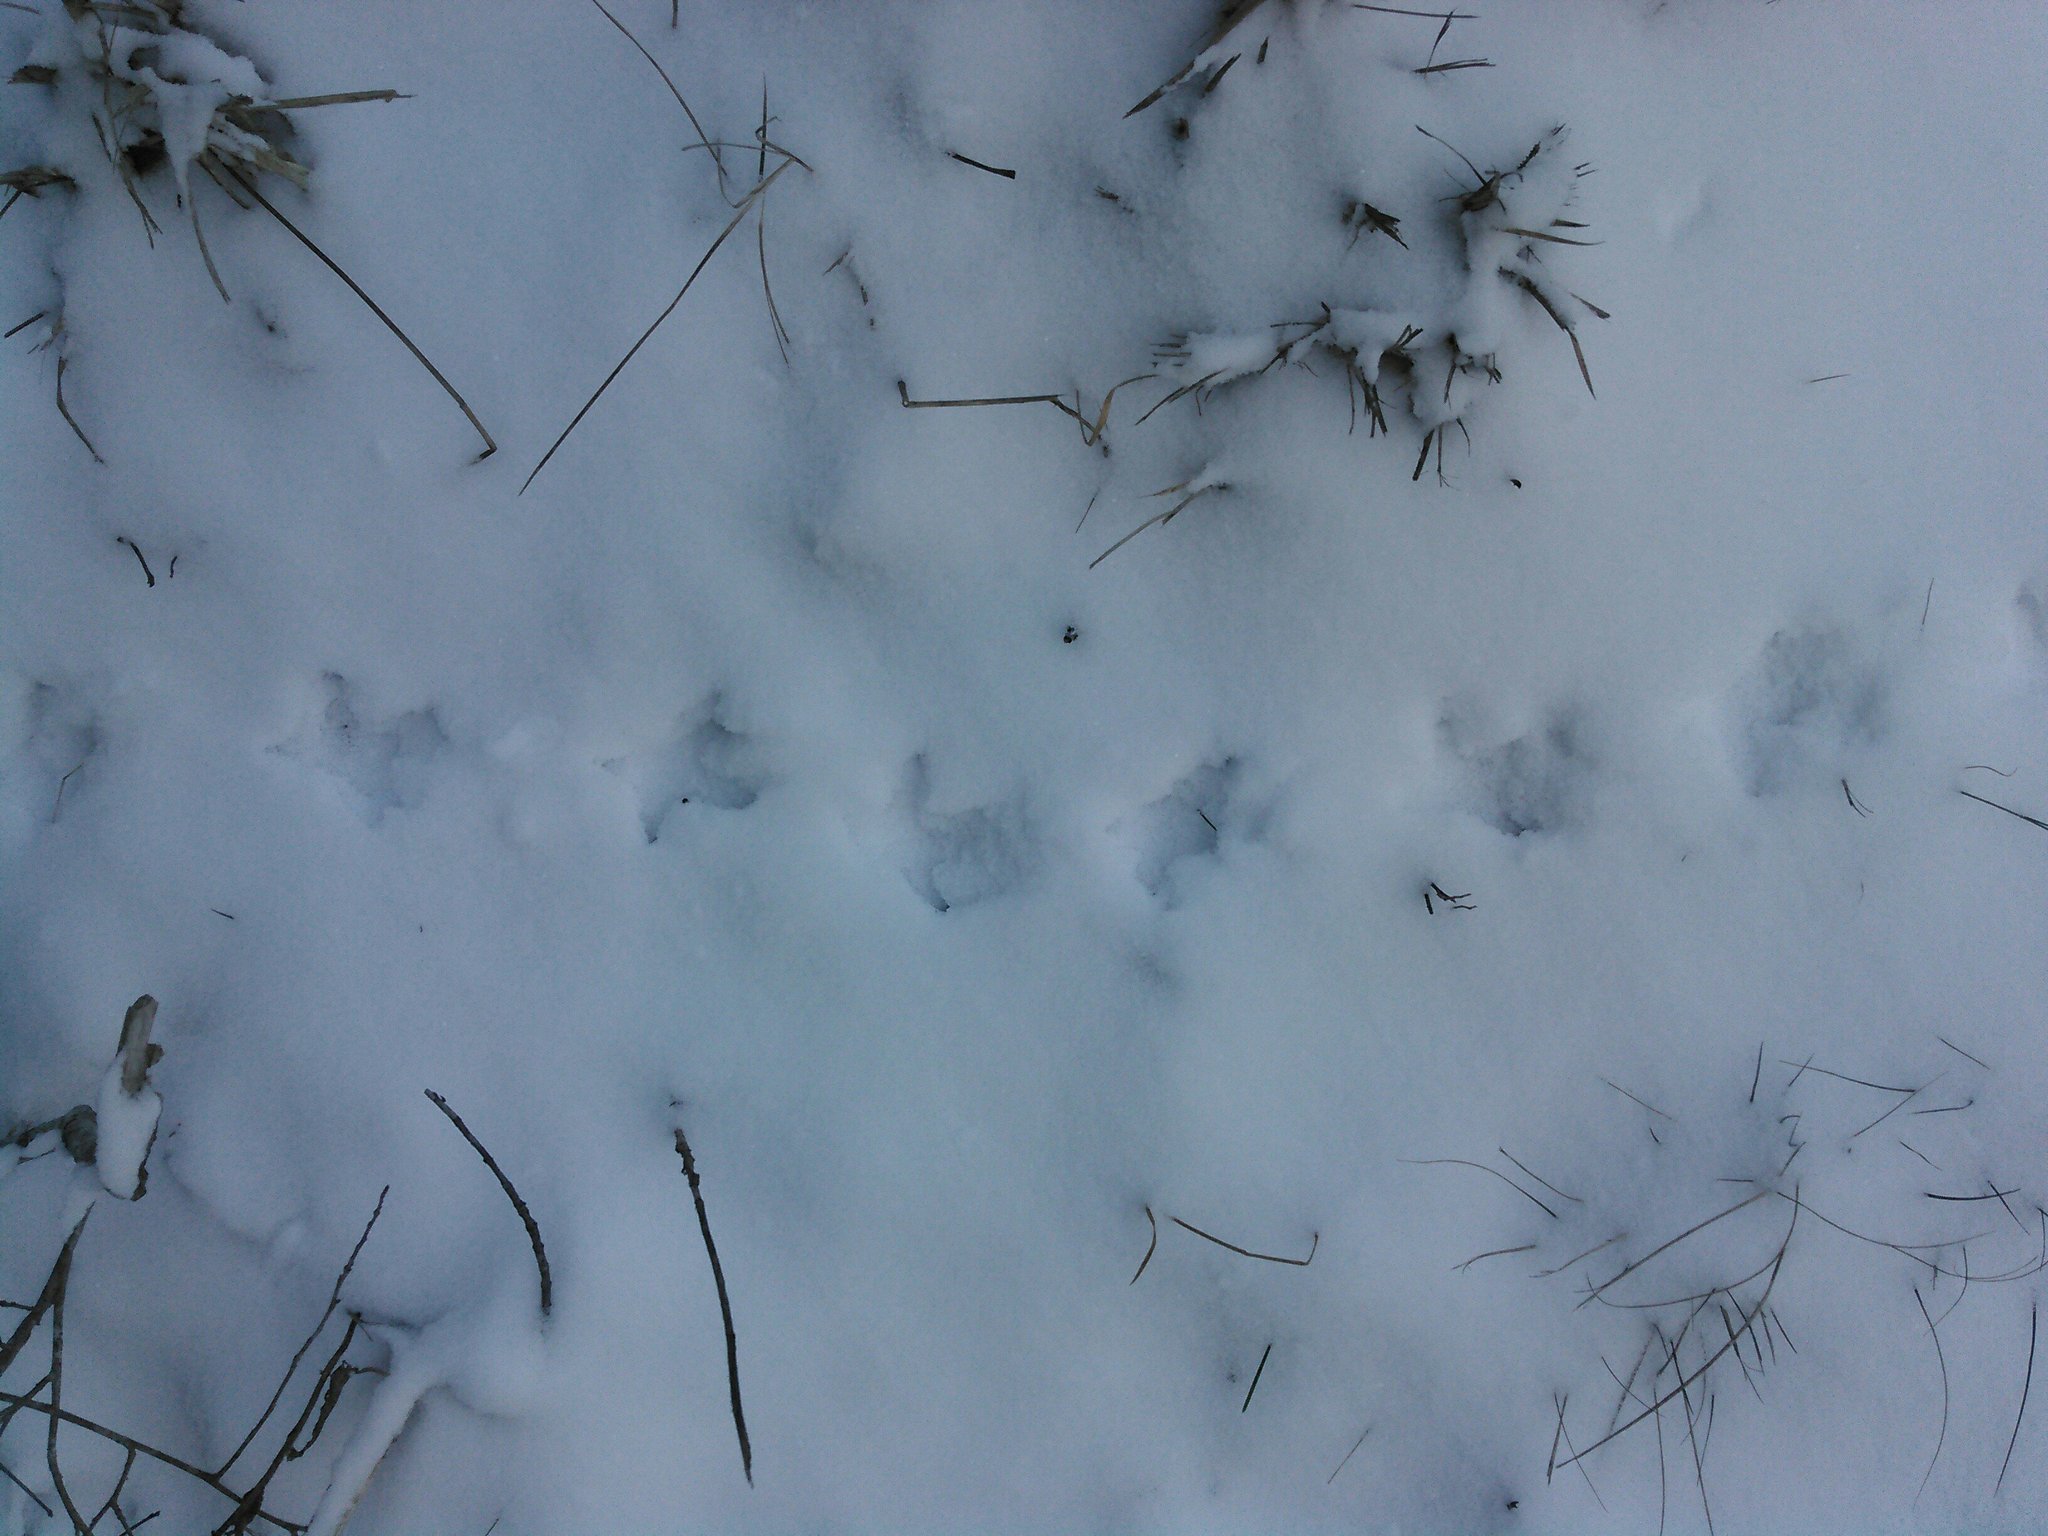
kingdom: Animalia
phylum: Chordata
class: Aves
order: Galliformes
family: Phasianidae
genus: Bonasa
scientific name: Bonasa umbellus
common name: Ruffed grouse
